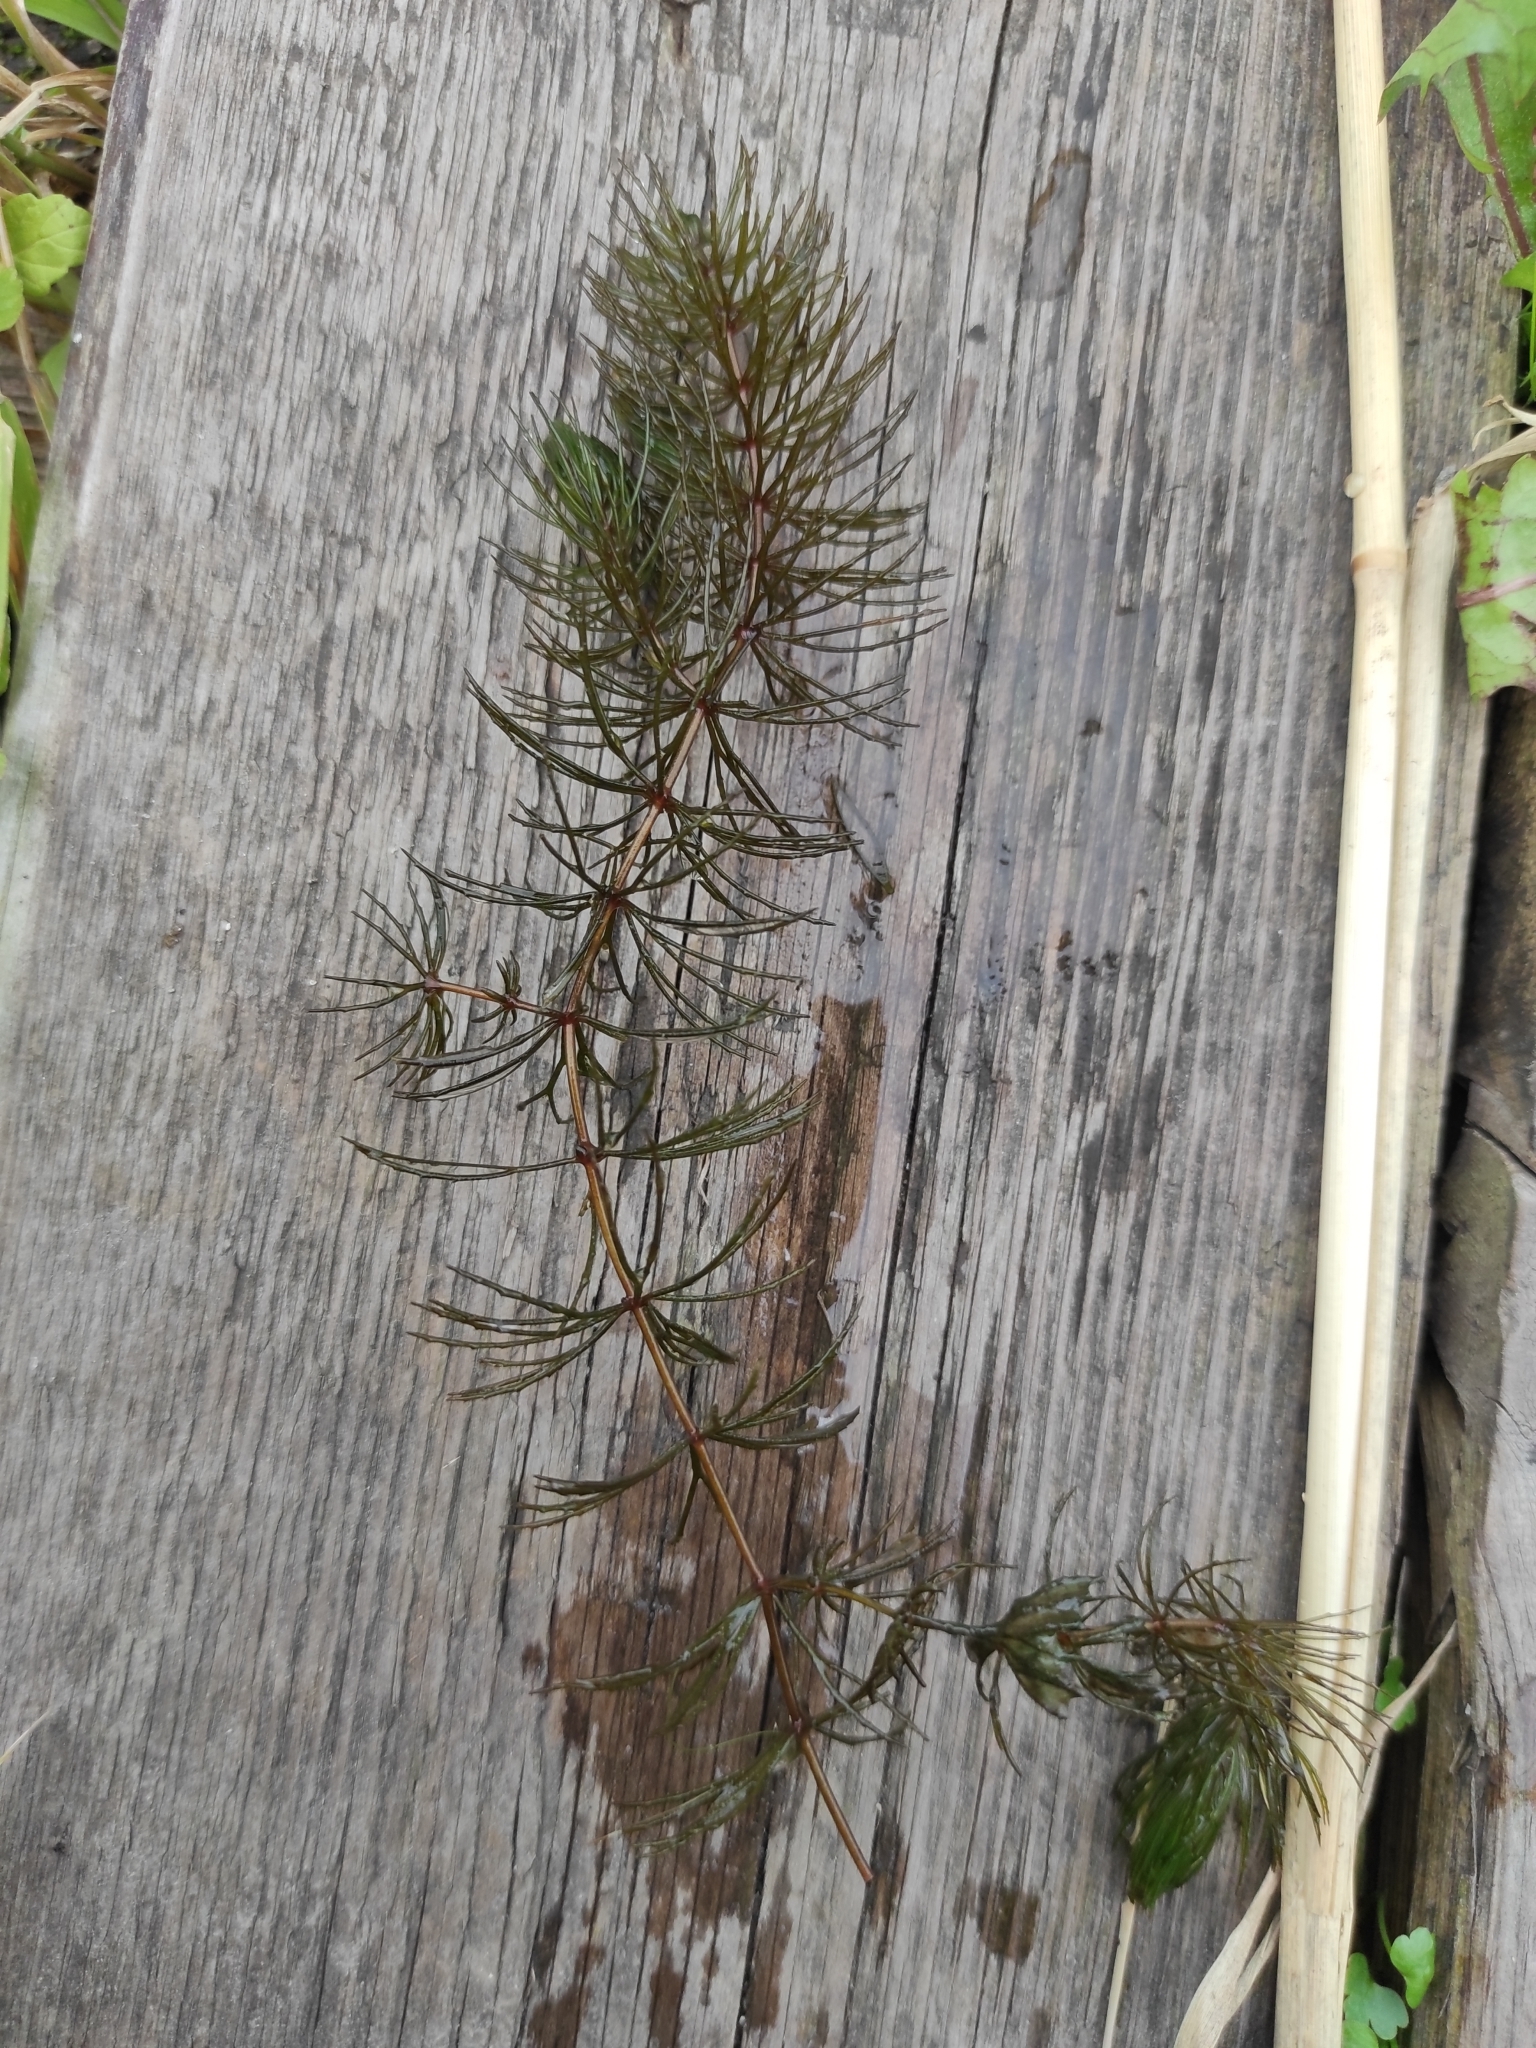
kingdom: Plantae
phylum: Tracheophyta
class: Magnoliopsida
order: Ceratophyllales
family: Ceratophyllaceae
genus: Ceratophyllum
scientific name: Ceratophyllum demersum
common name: Rigid hornwort
